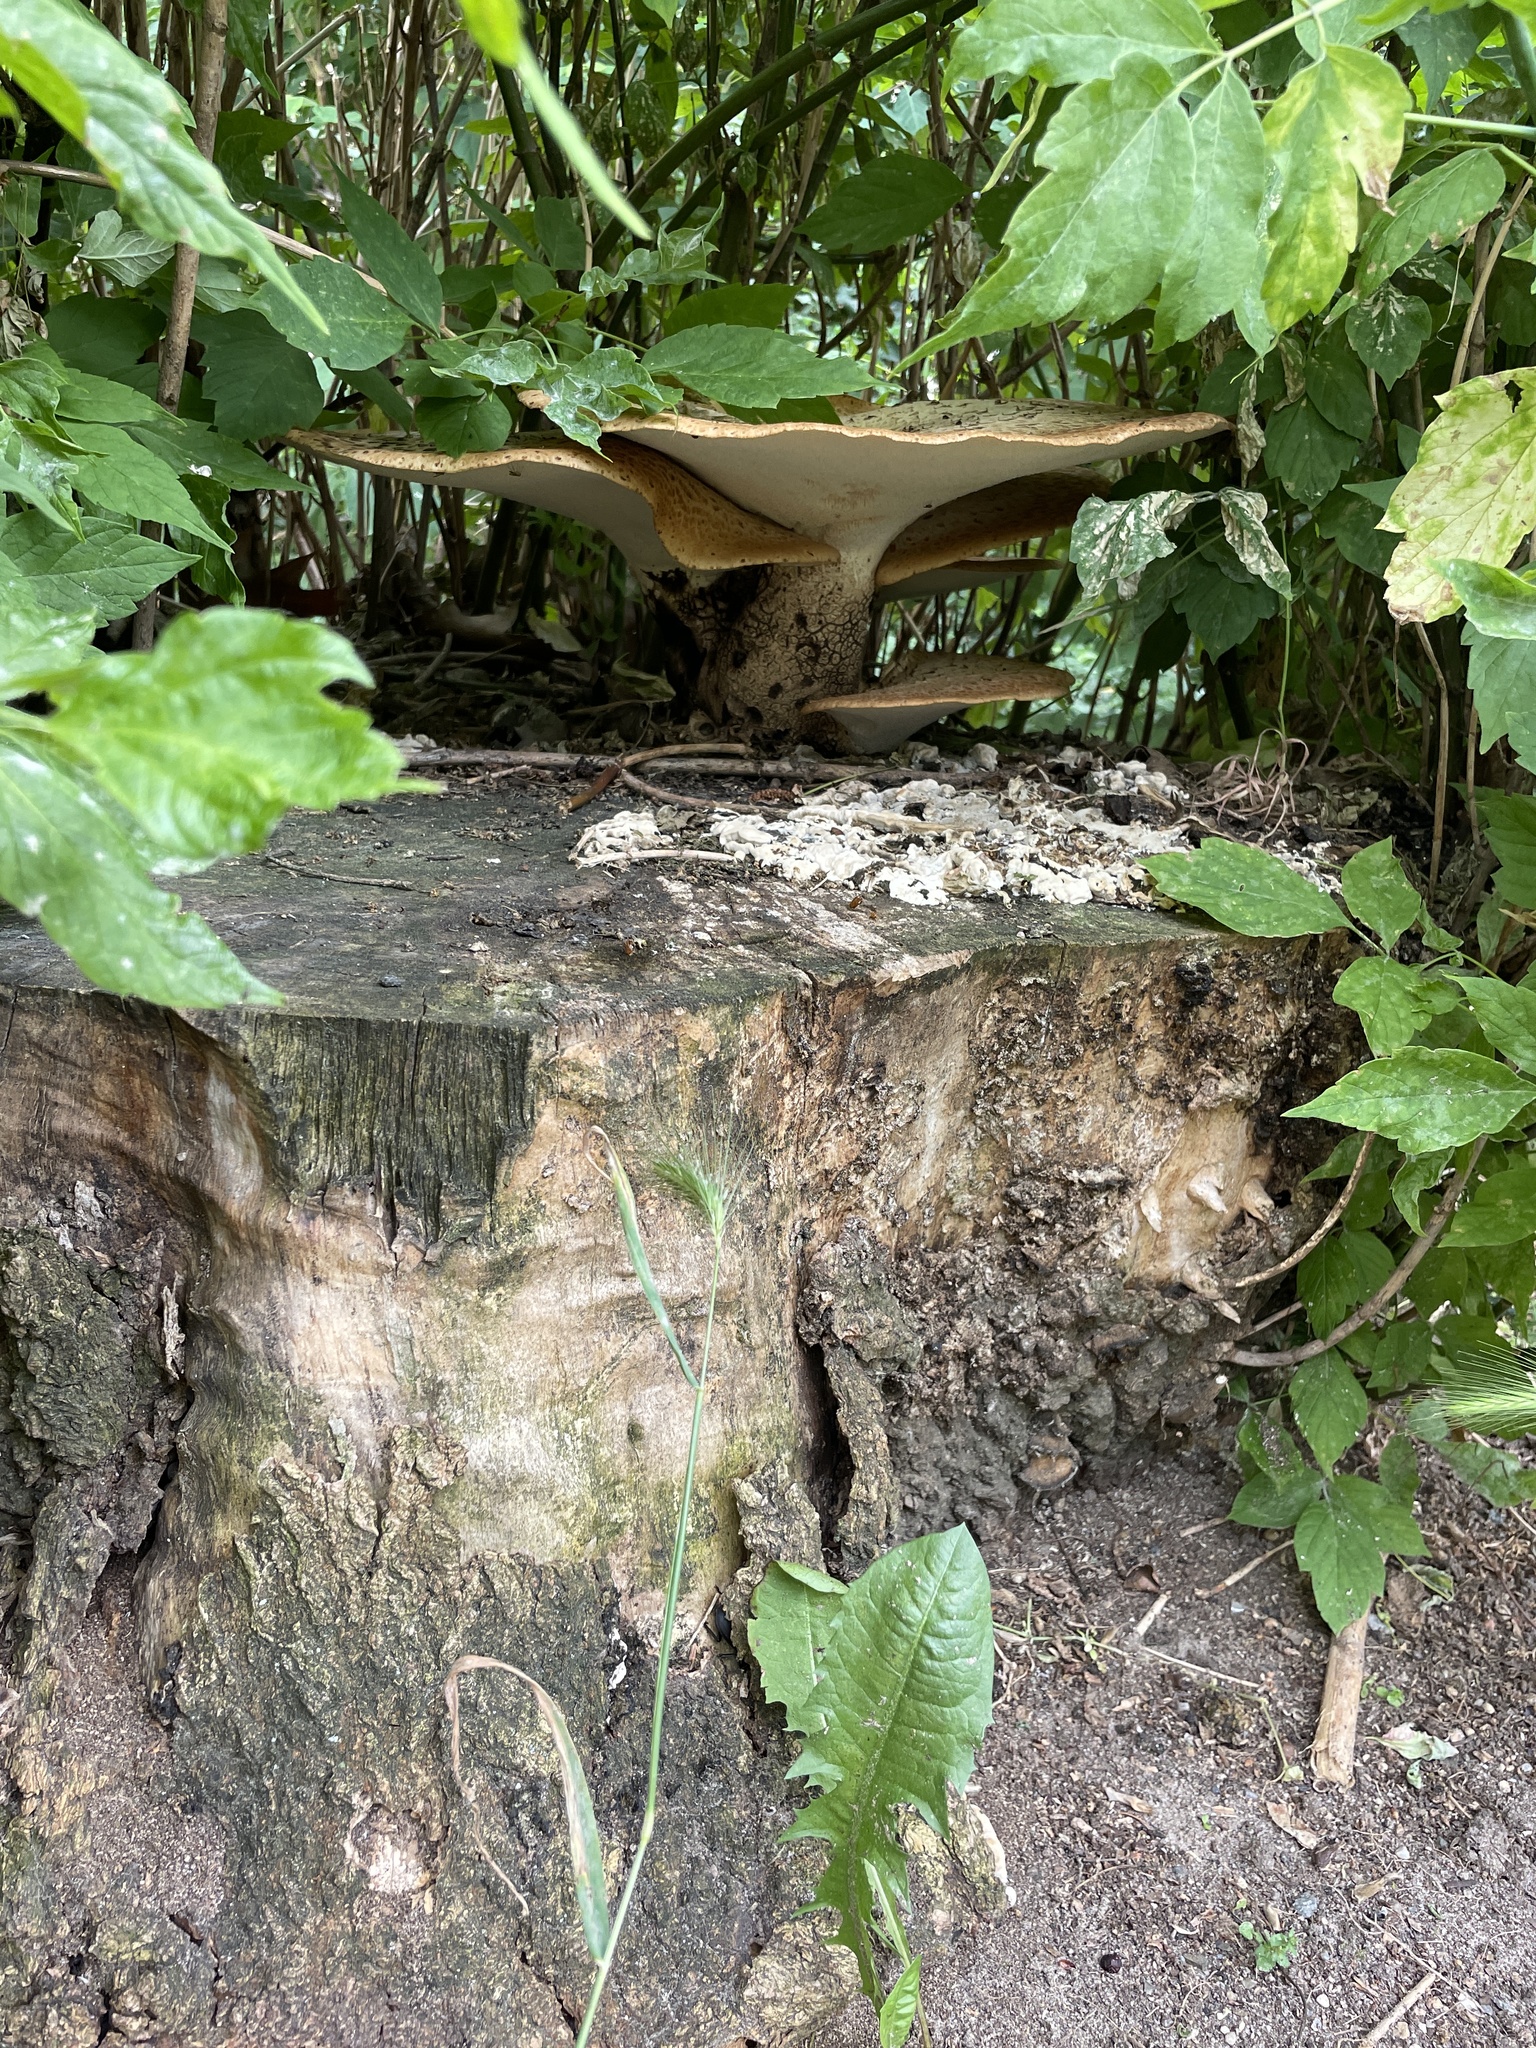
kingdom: Fungi
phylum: Basidiomycota
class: Agaricomycetes
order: Polyporales
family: Polyporaceae
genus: Cerioporus
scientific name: Cerioporus squamosus
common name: Dryad's saddle
